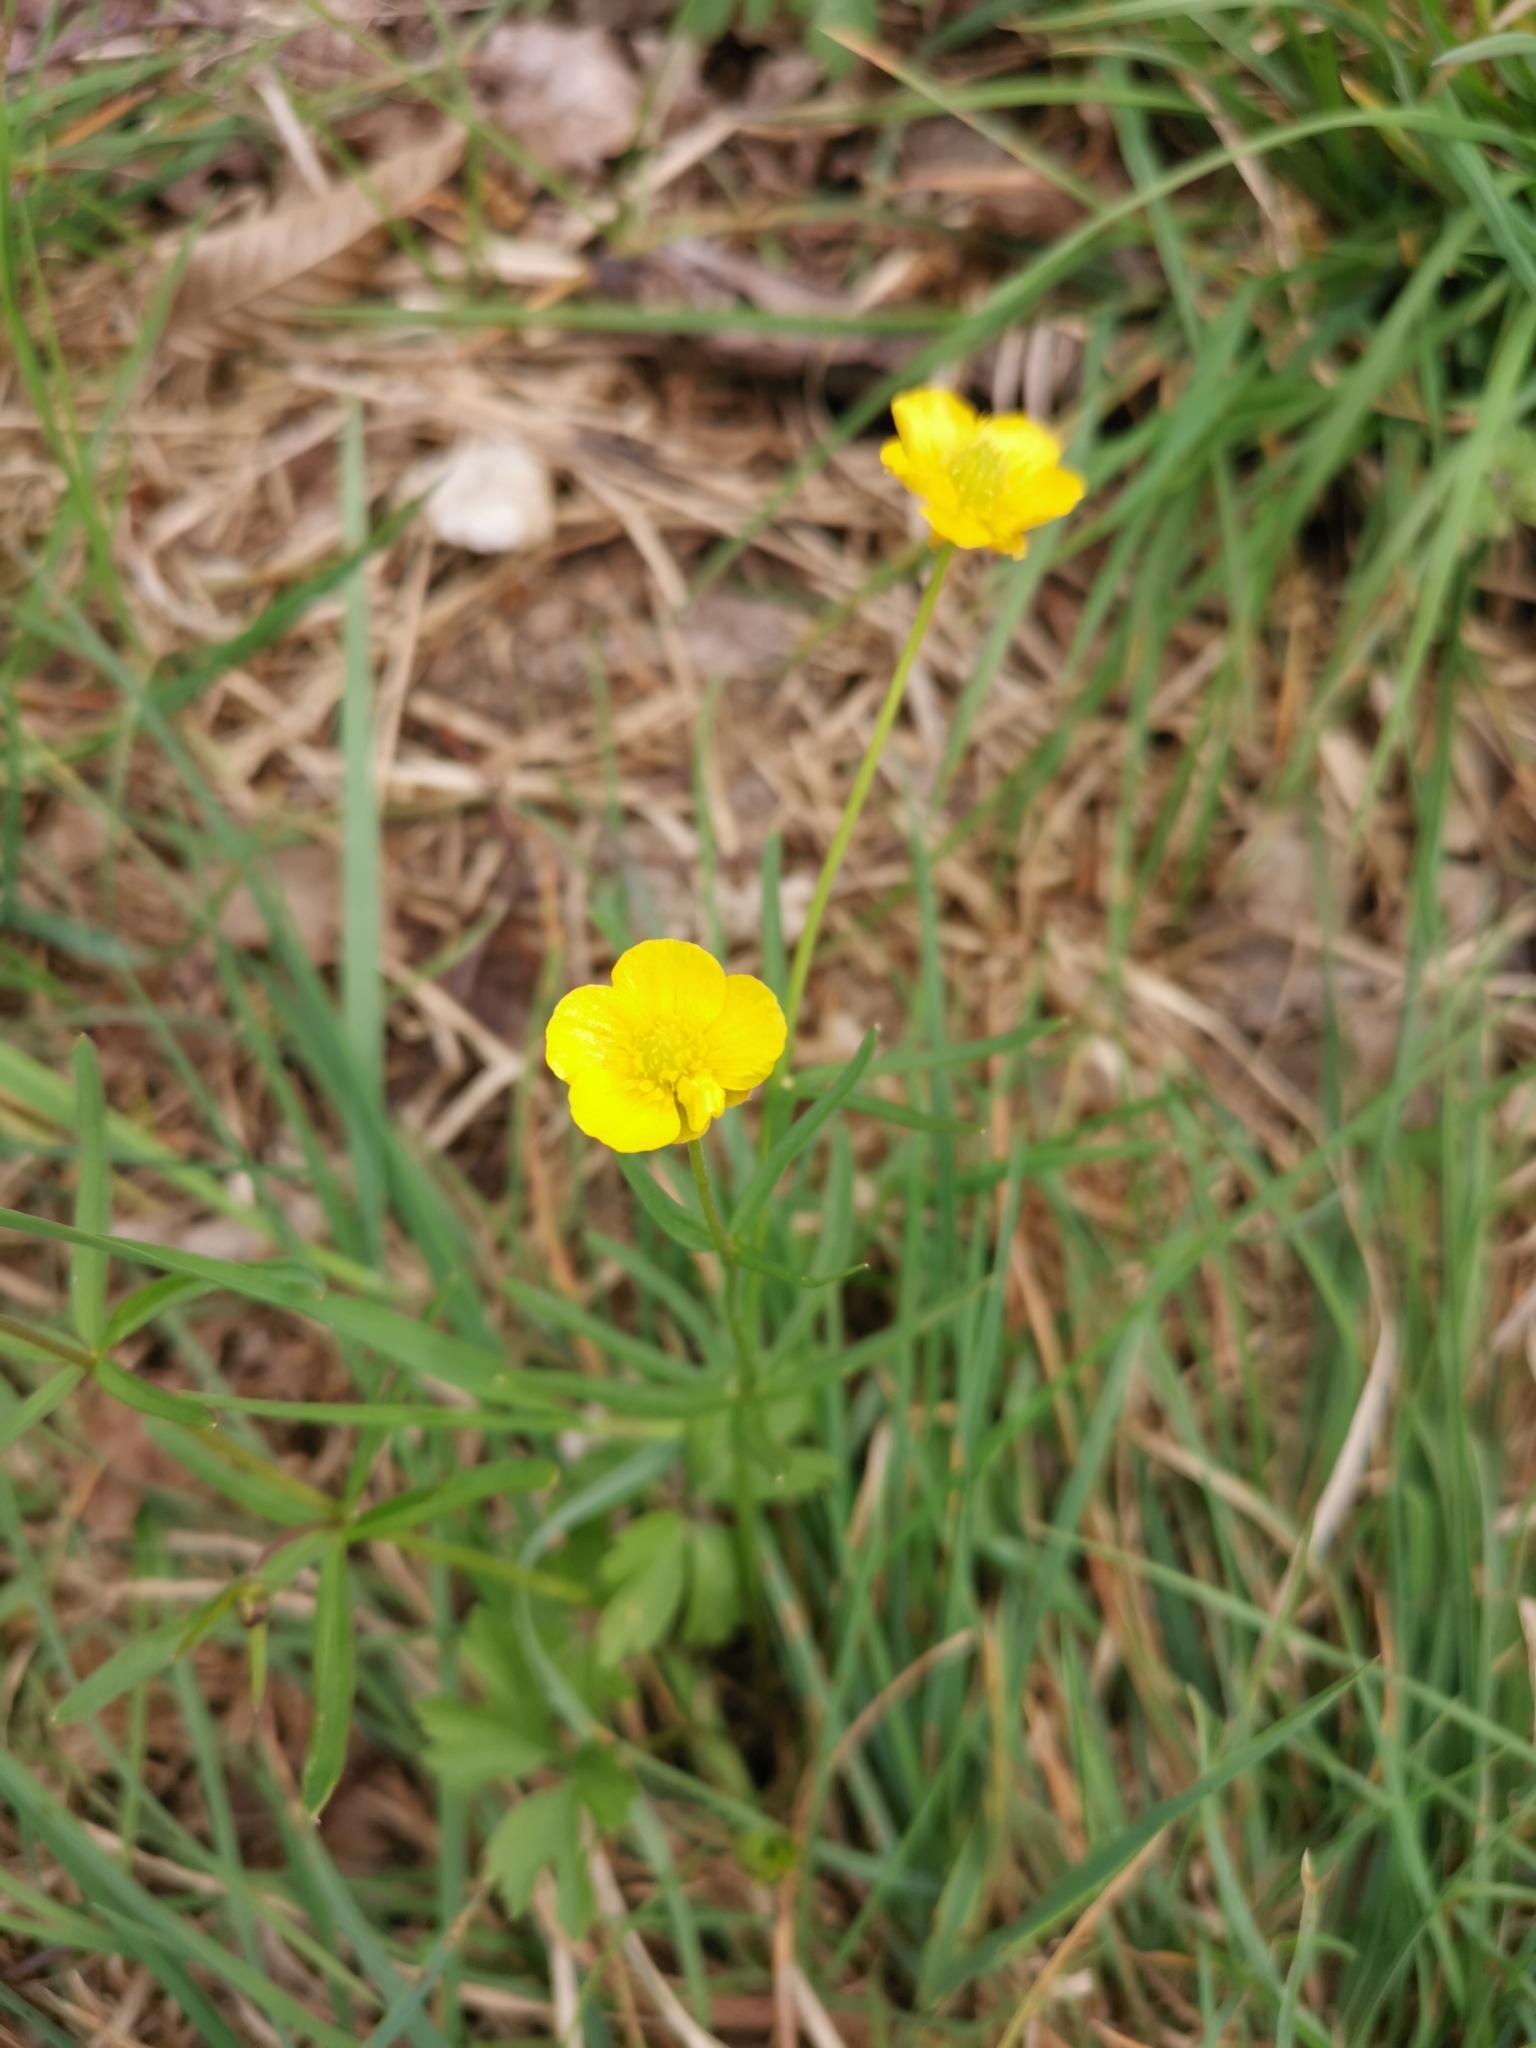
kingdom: Plantae
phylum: Tracheophyta
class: Magnoliopsida
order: Ranunculales
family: Ranunculaceae
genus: Ranunculus
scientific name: Ranunculus auricomus
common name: Goldilocks buttercup
